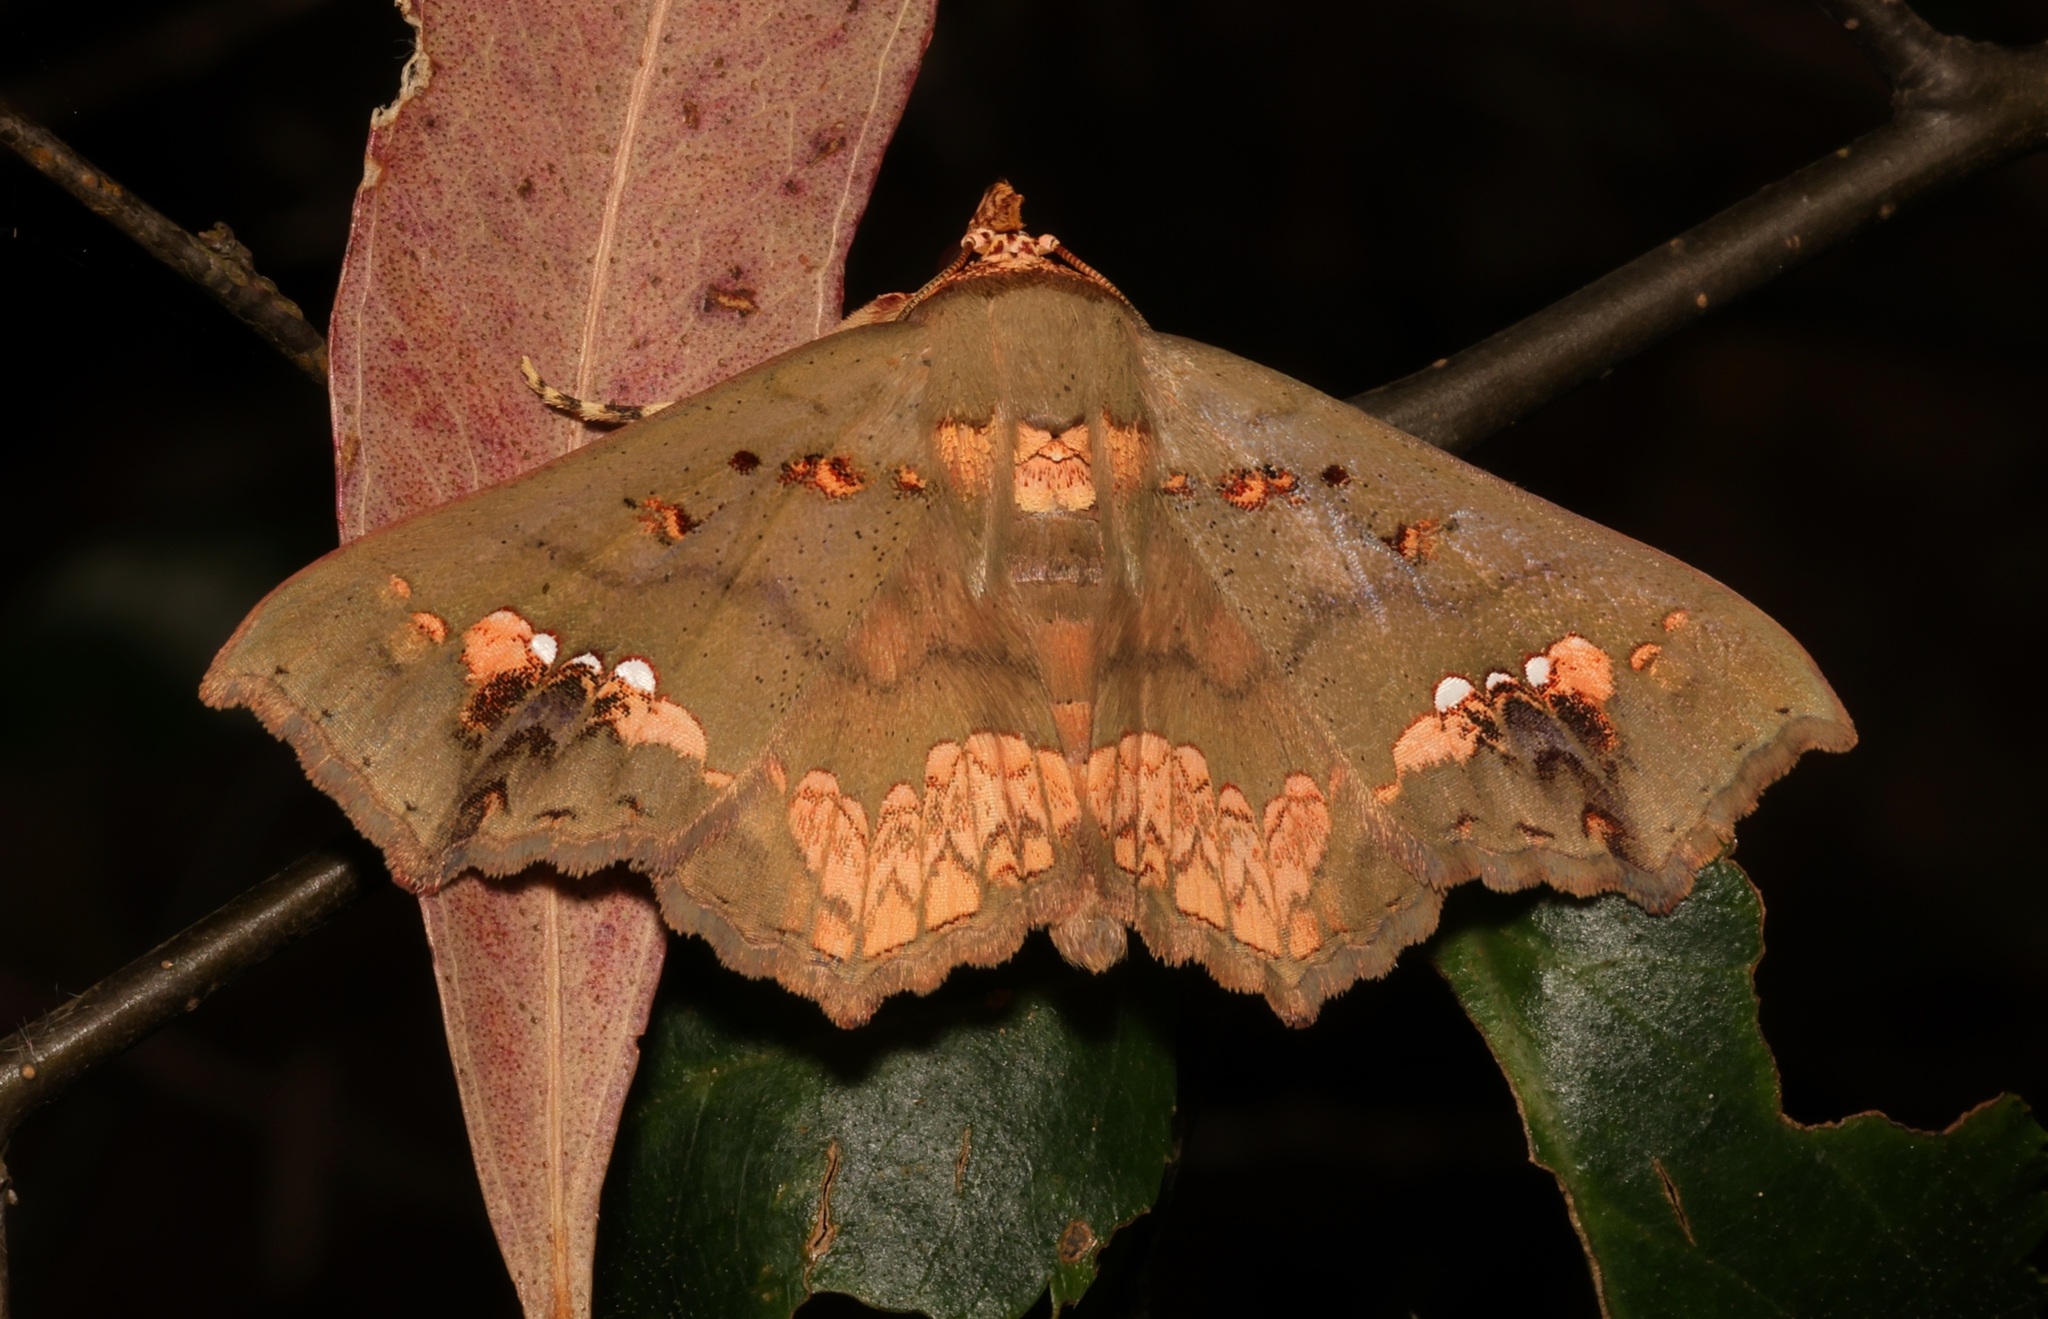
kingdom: Animalia
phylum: Arthropoda
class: Insecta
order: Lepidoptera
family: Erebidae
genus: Lopharthrum
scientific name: Lopharthrum comprimens
